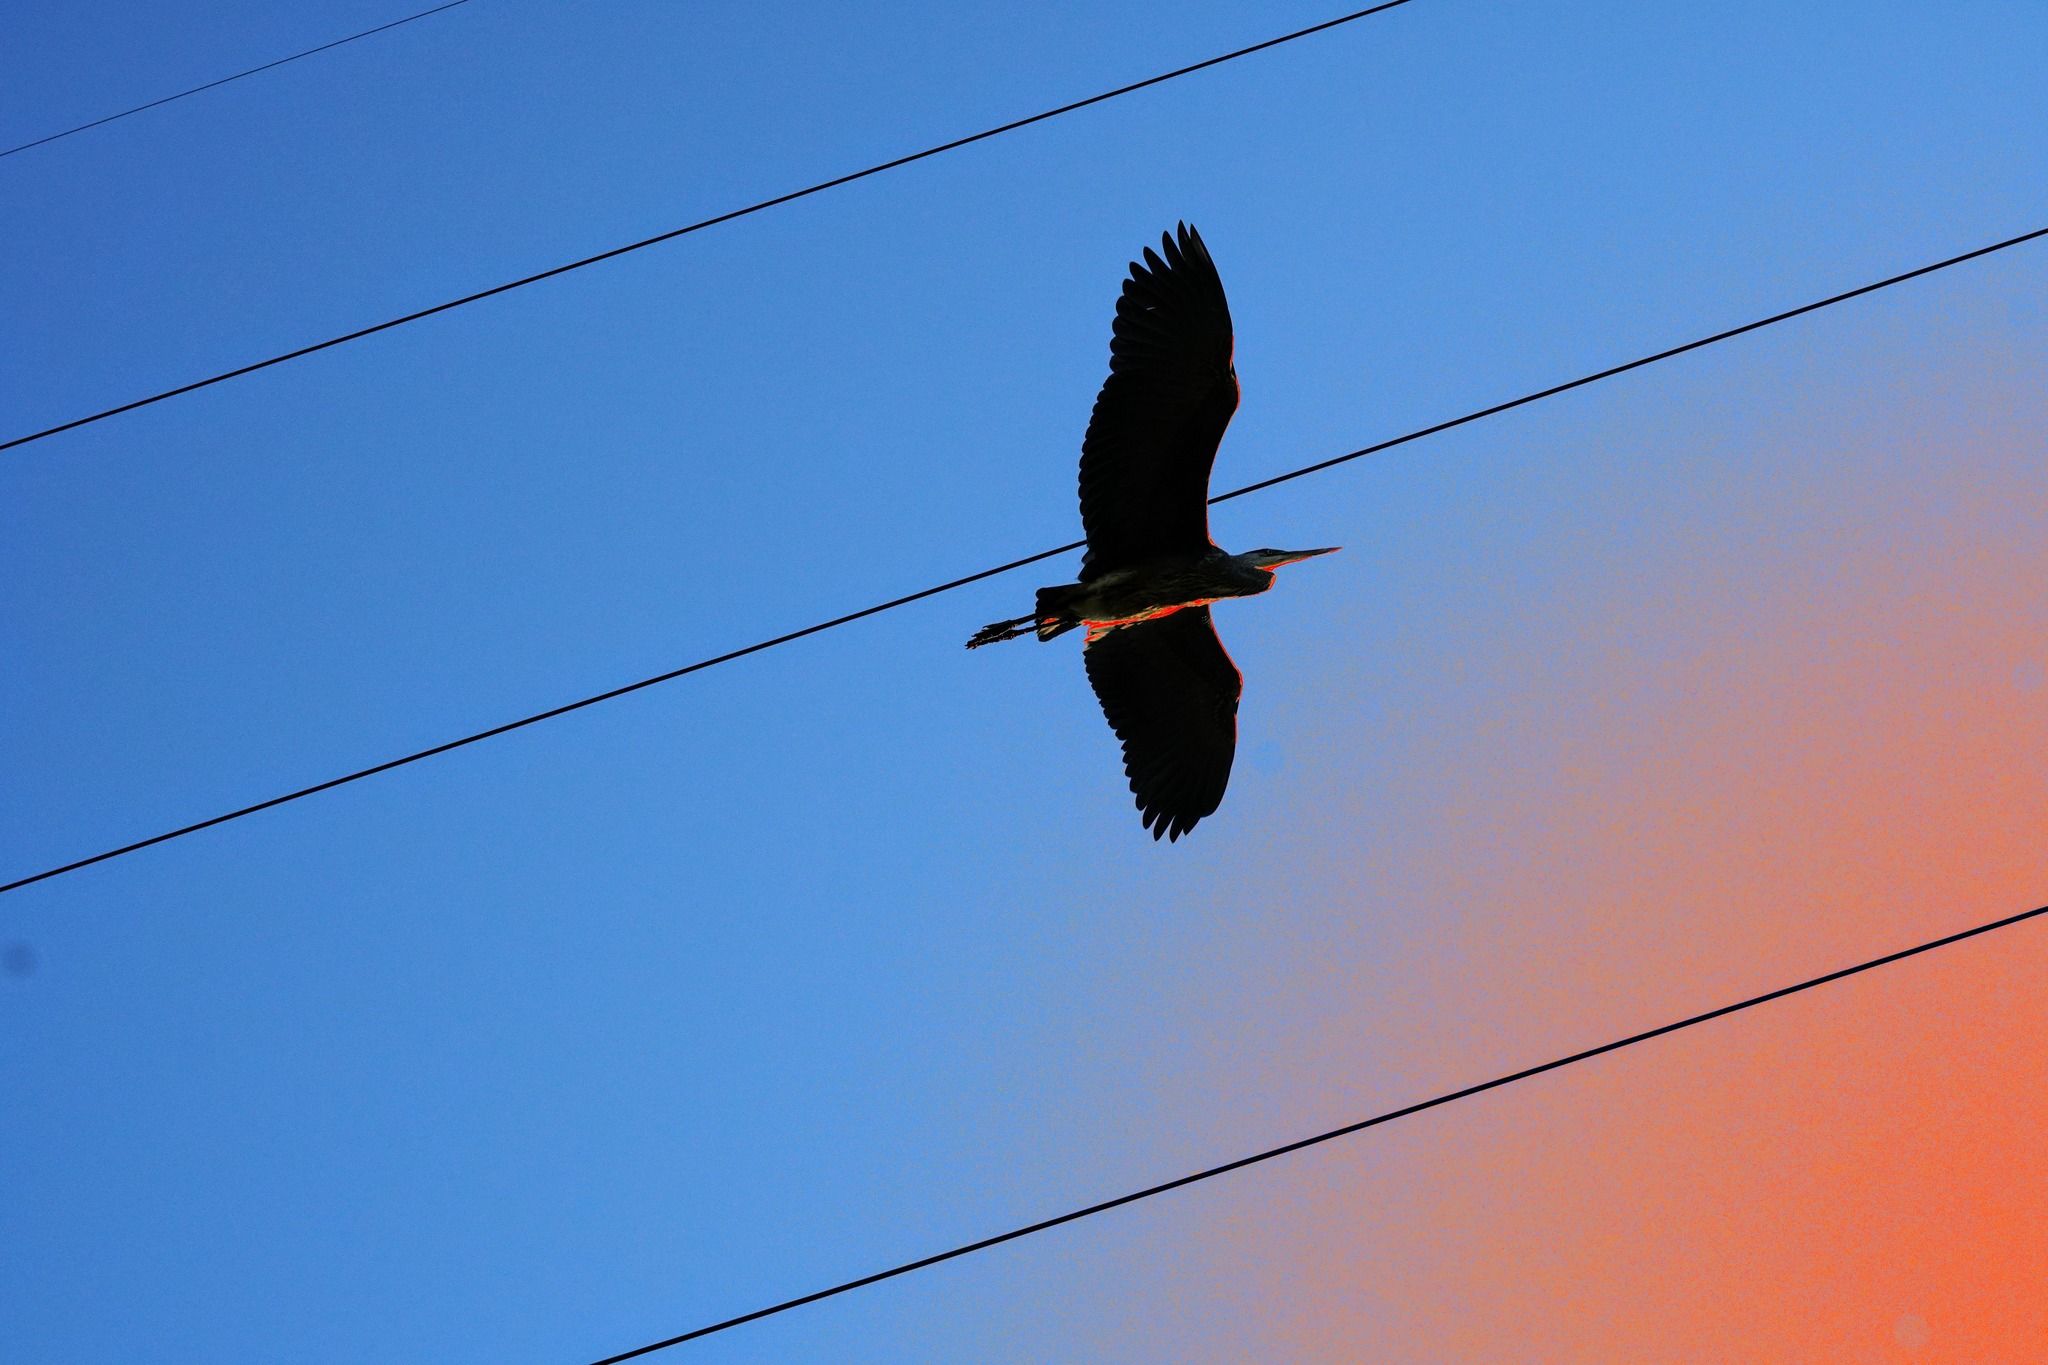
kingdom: Animalia
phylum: Chordata
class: Aves
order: Pelecaniformes
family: Ardeidae
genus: Ardea
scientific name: Ardea herodias
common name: Great blue heron
